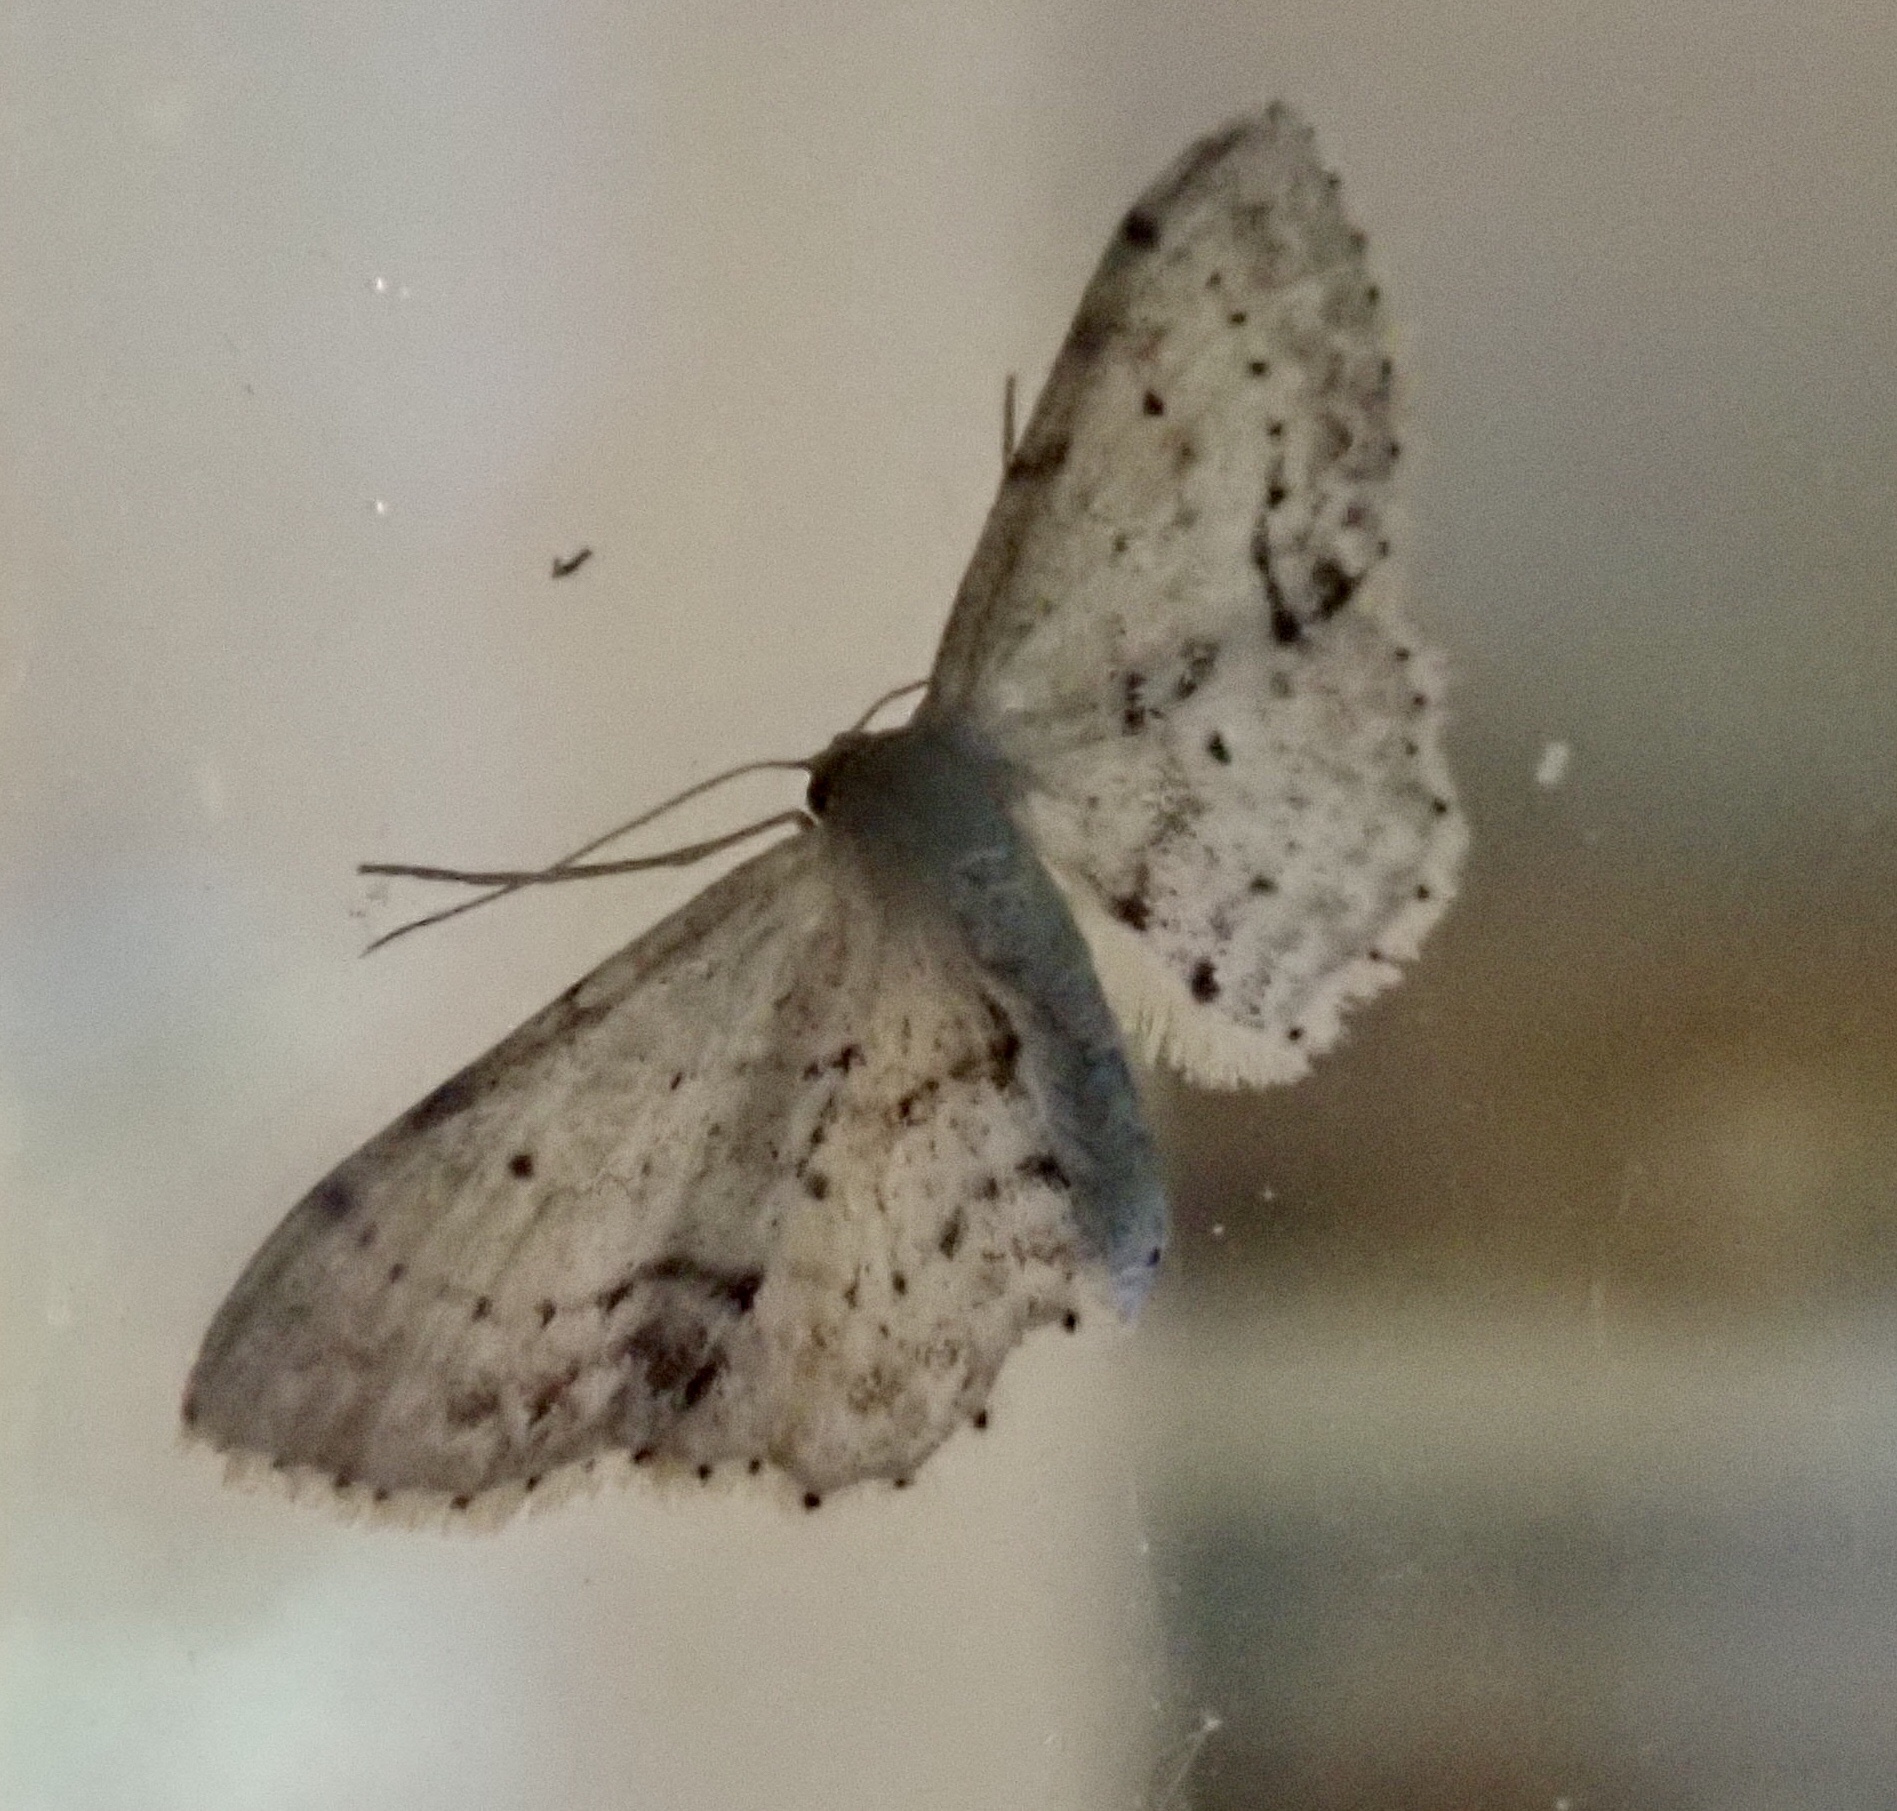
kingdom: Animalia
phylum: Arthropoda
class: Insecta
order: Lepidoptera
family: Geometridae
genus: Idaea
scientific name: Idaea dimidiata
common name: Single-dotted wave
